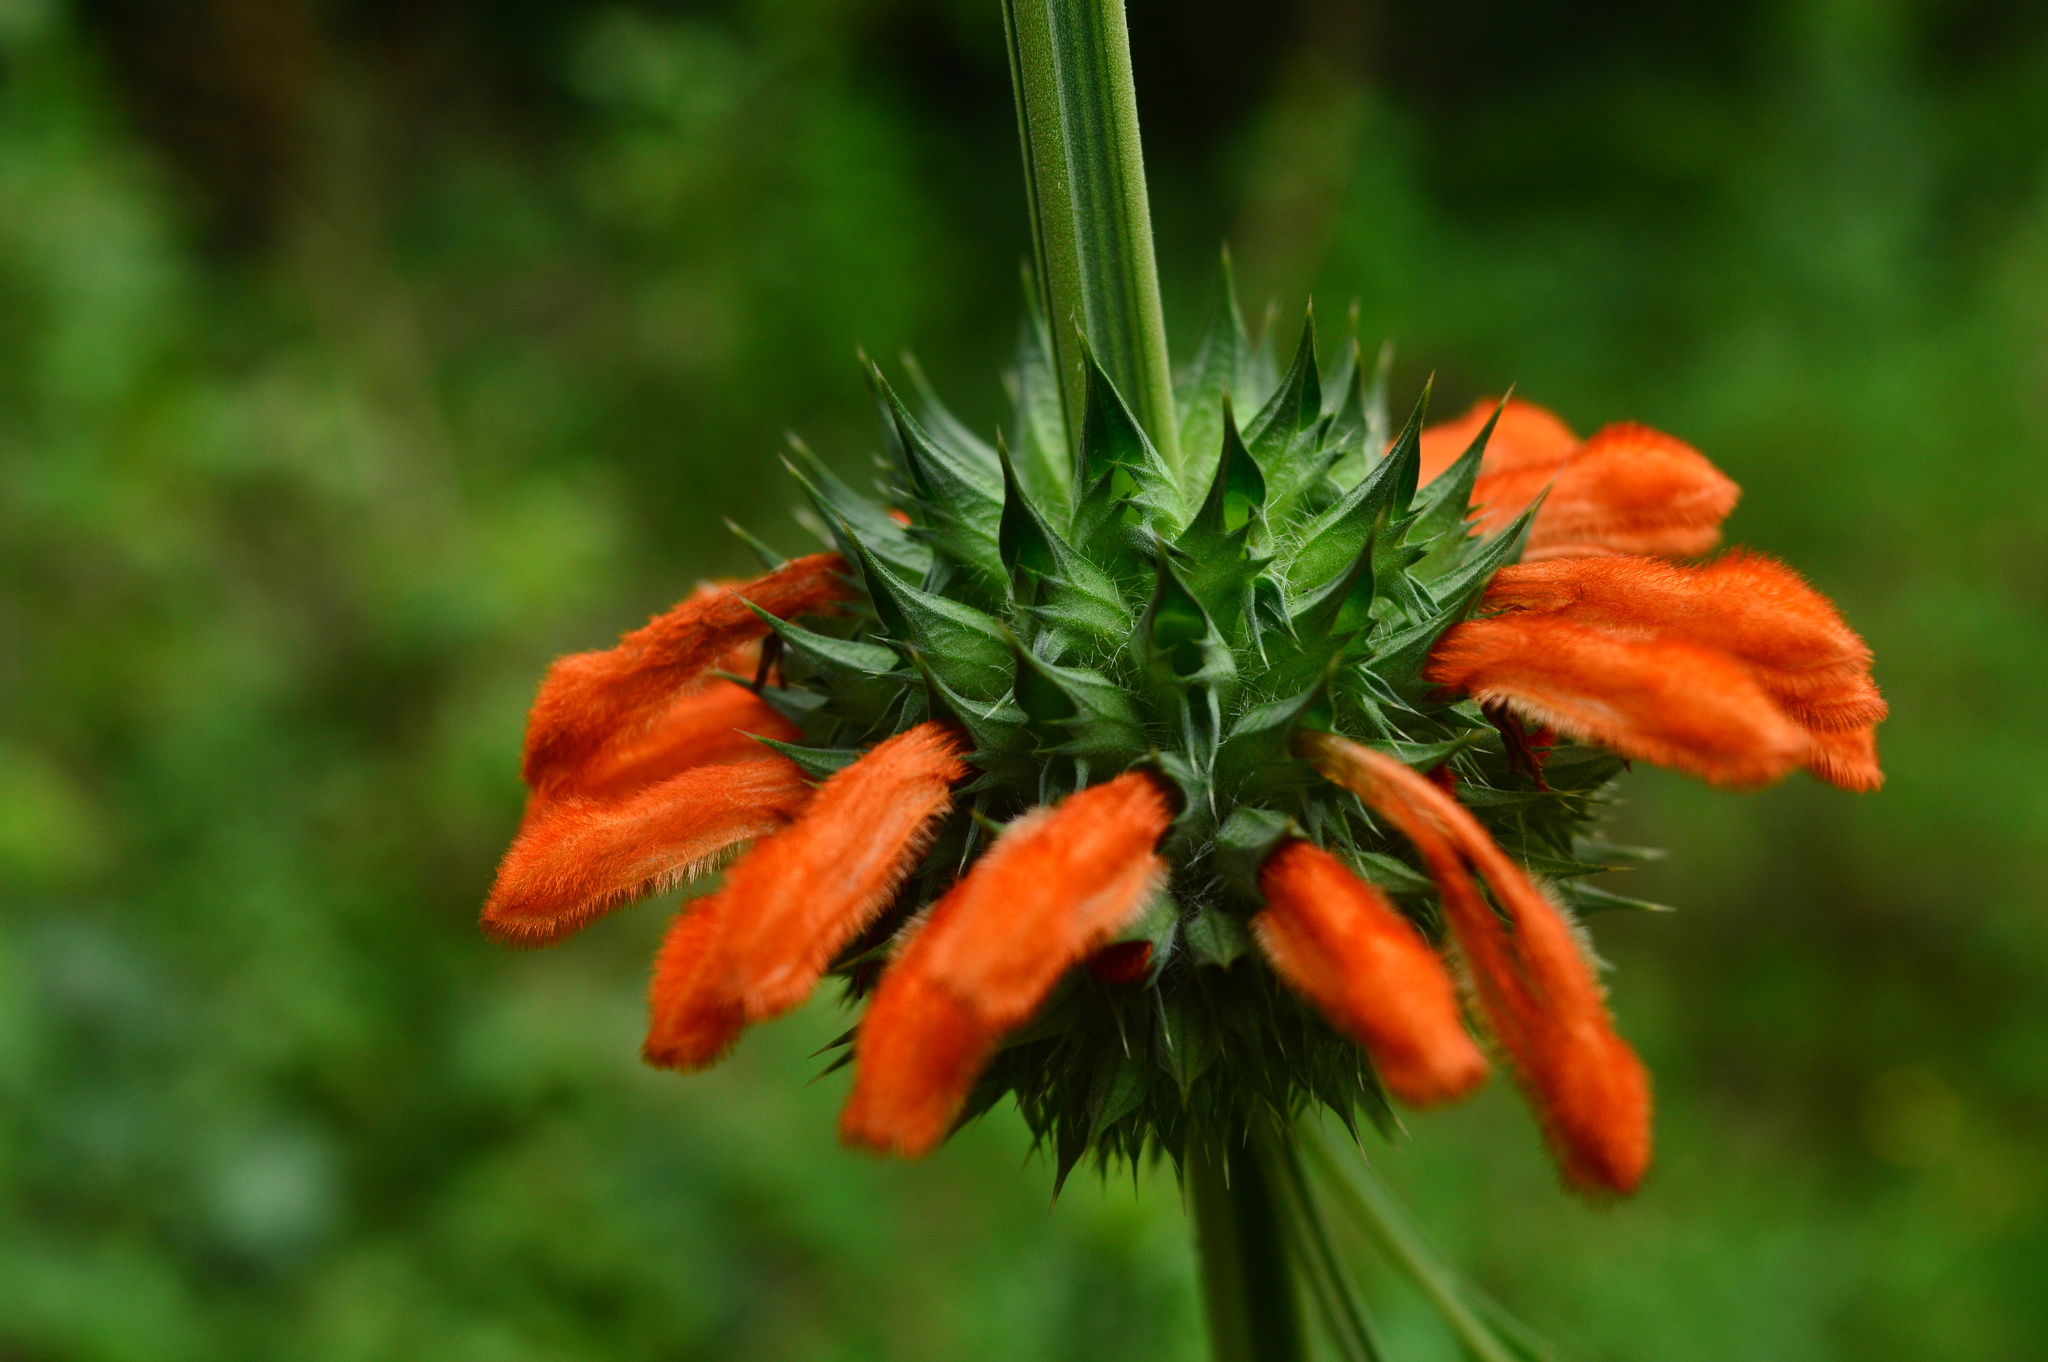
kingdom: Plantae
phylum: Tracheophyta
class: Magnoliopsida
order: Lamiales
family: Lamiaceae
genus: Leonotis
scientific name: Leonotis nepetifolia
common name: Christmas candlestick
